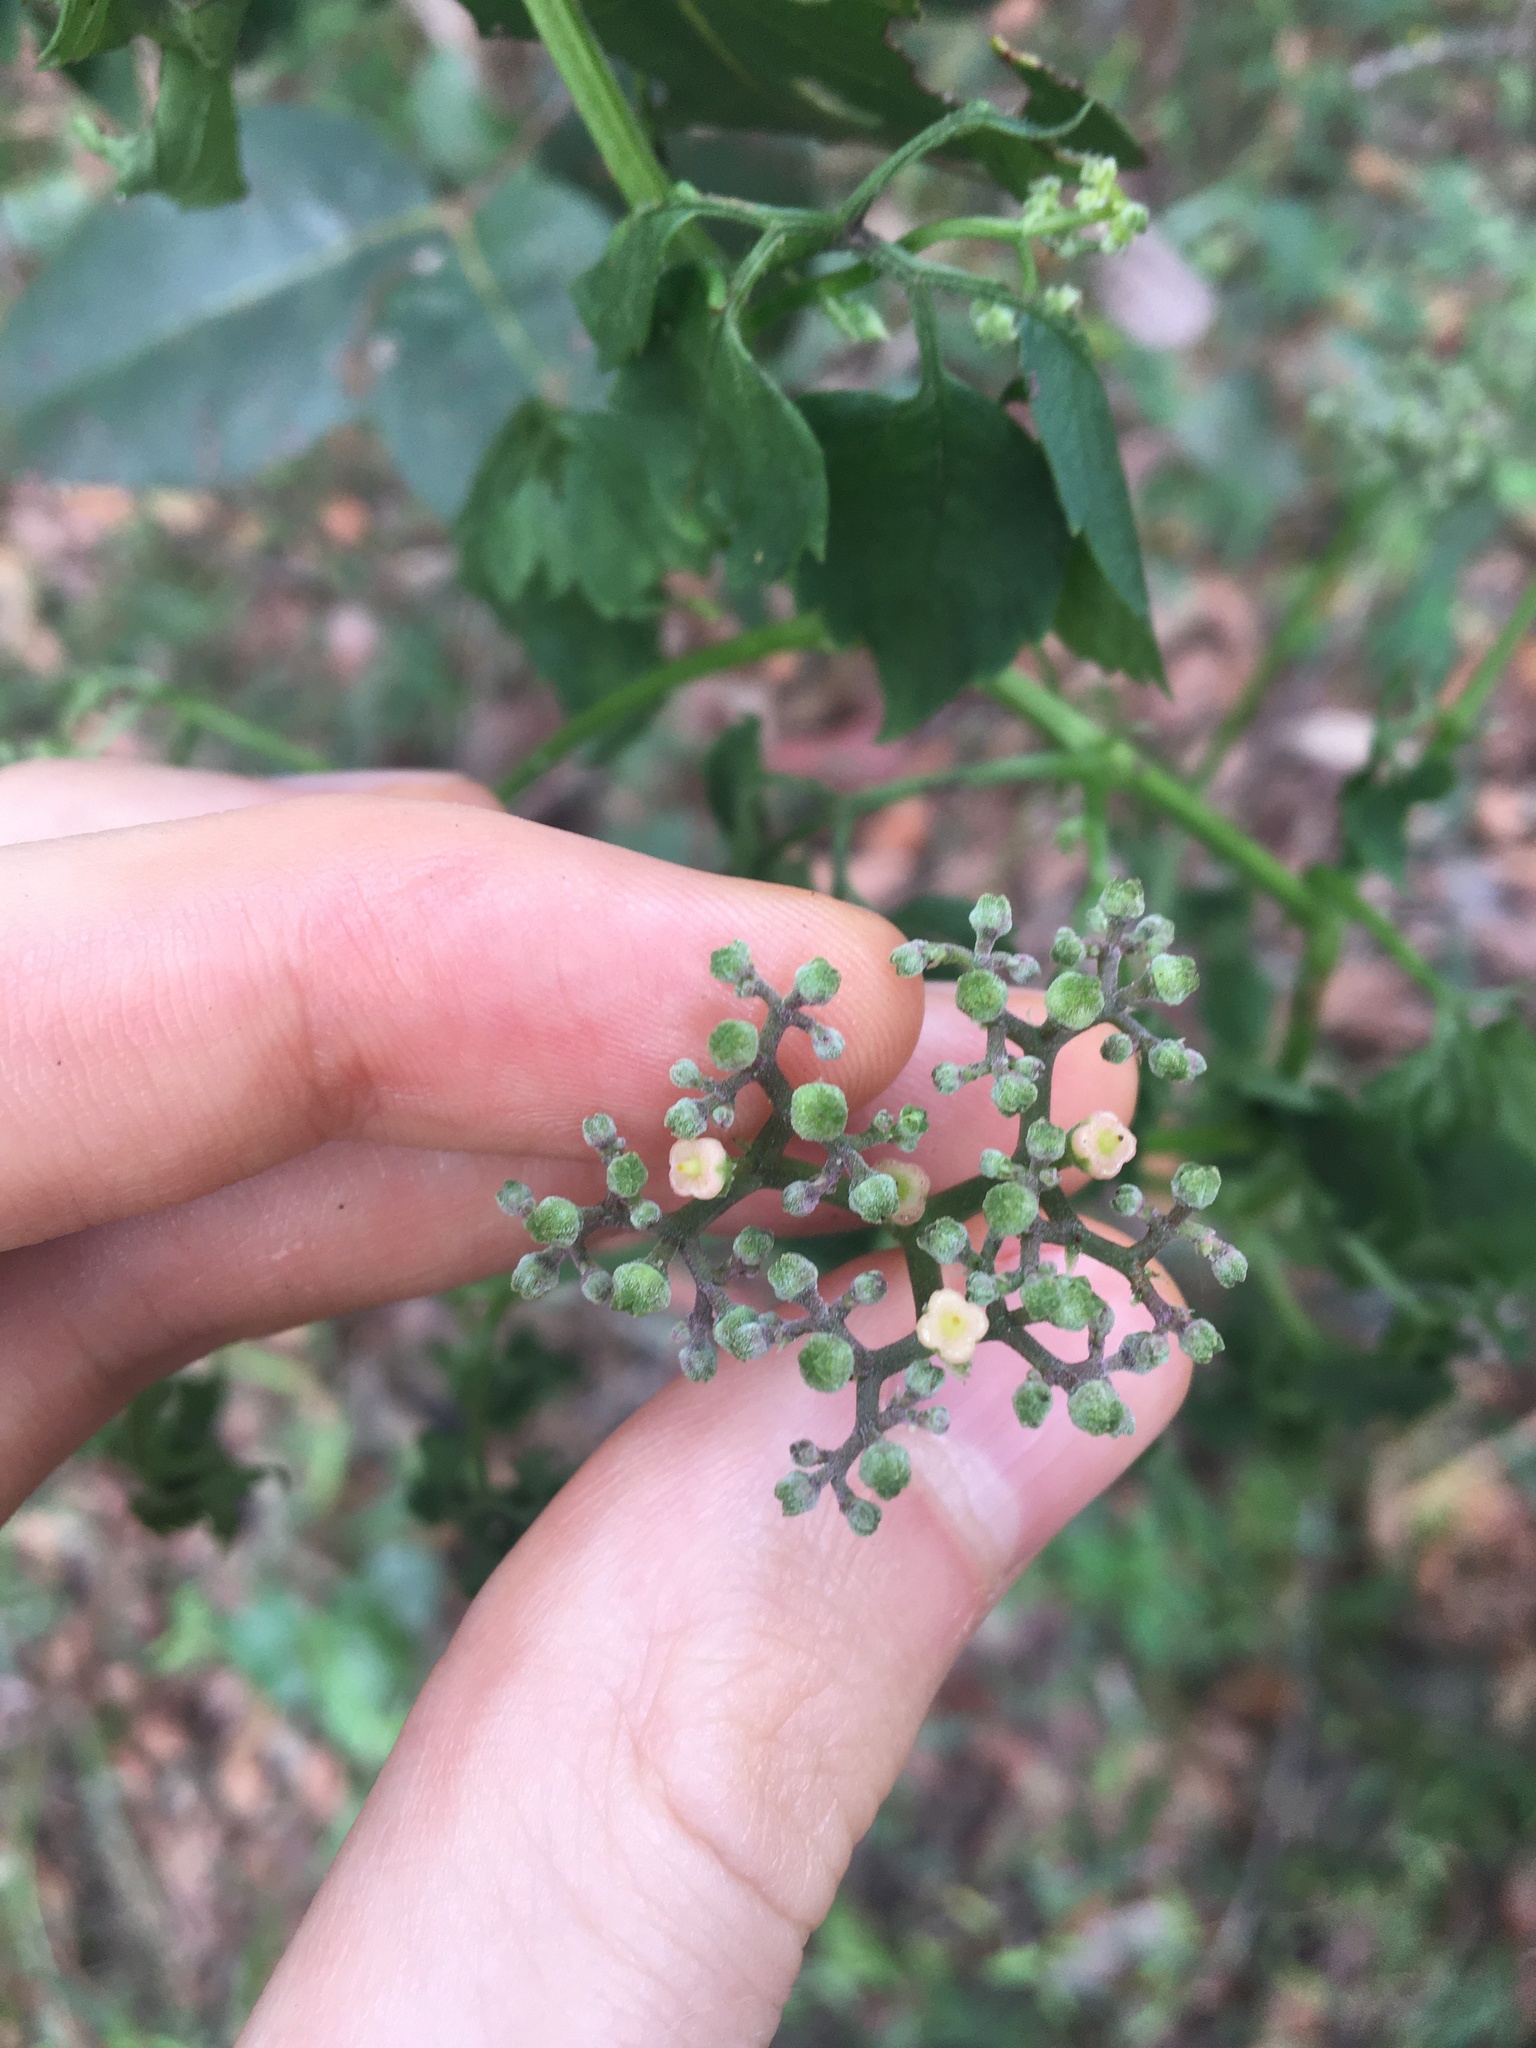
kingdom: Plantae
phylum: Tracheophyta
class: Magnoliopsida
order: Vitales
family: Vitaceae
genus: Causonis
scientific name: Causonis clematidea
